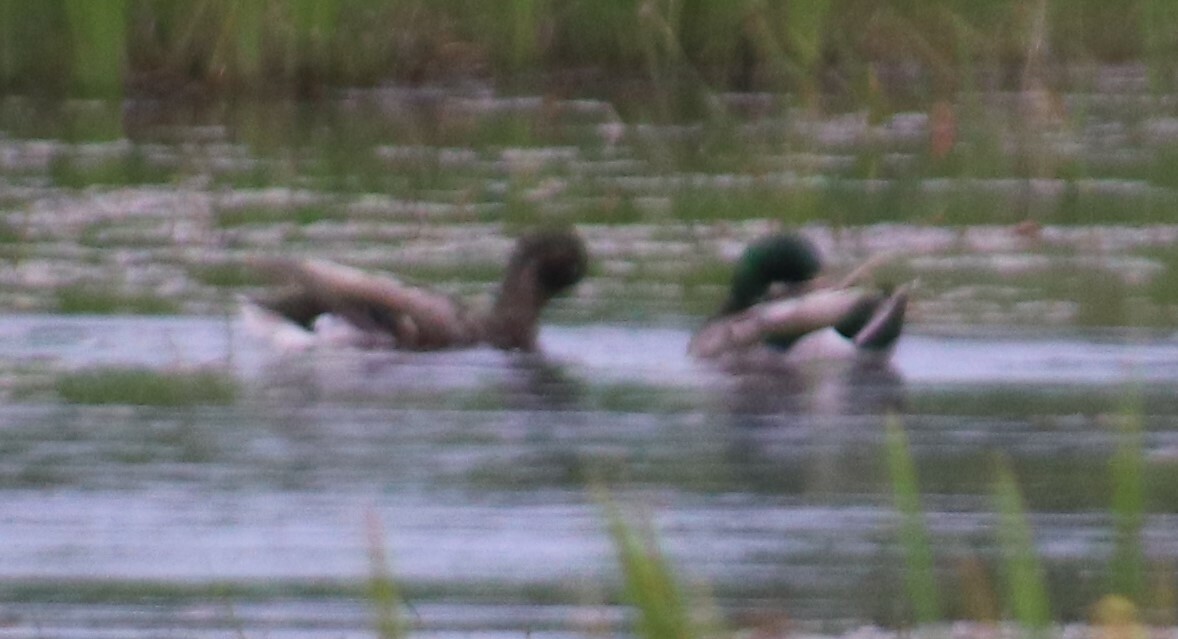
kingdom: Animalia
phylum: Chordata
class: Aves
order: Anseriformes
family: Anatidae
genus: Anas
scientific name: Anas platyrhynchos
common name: Mallard
